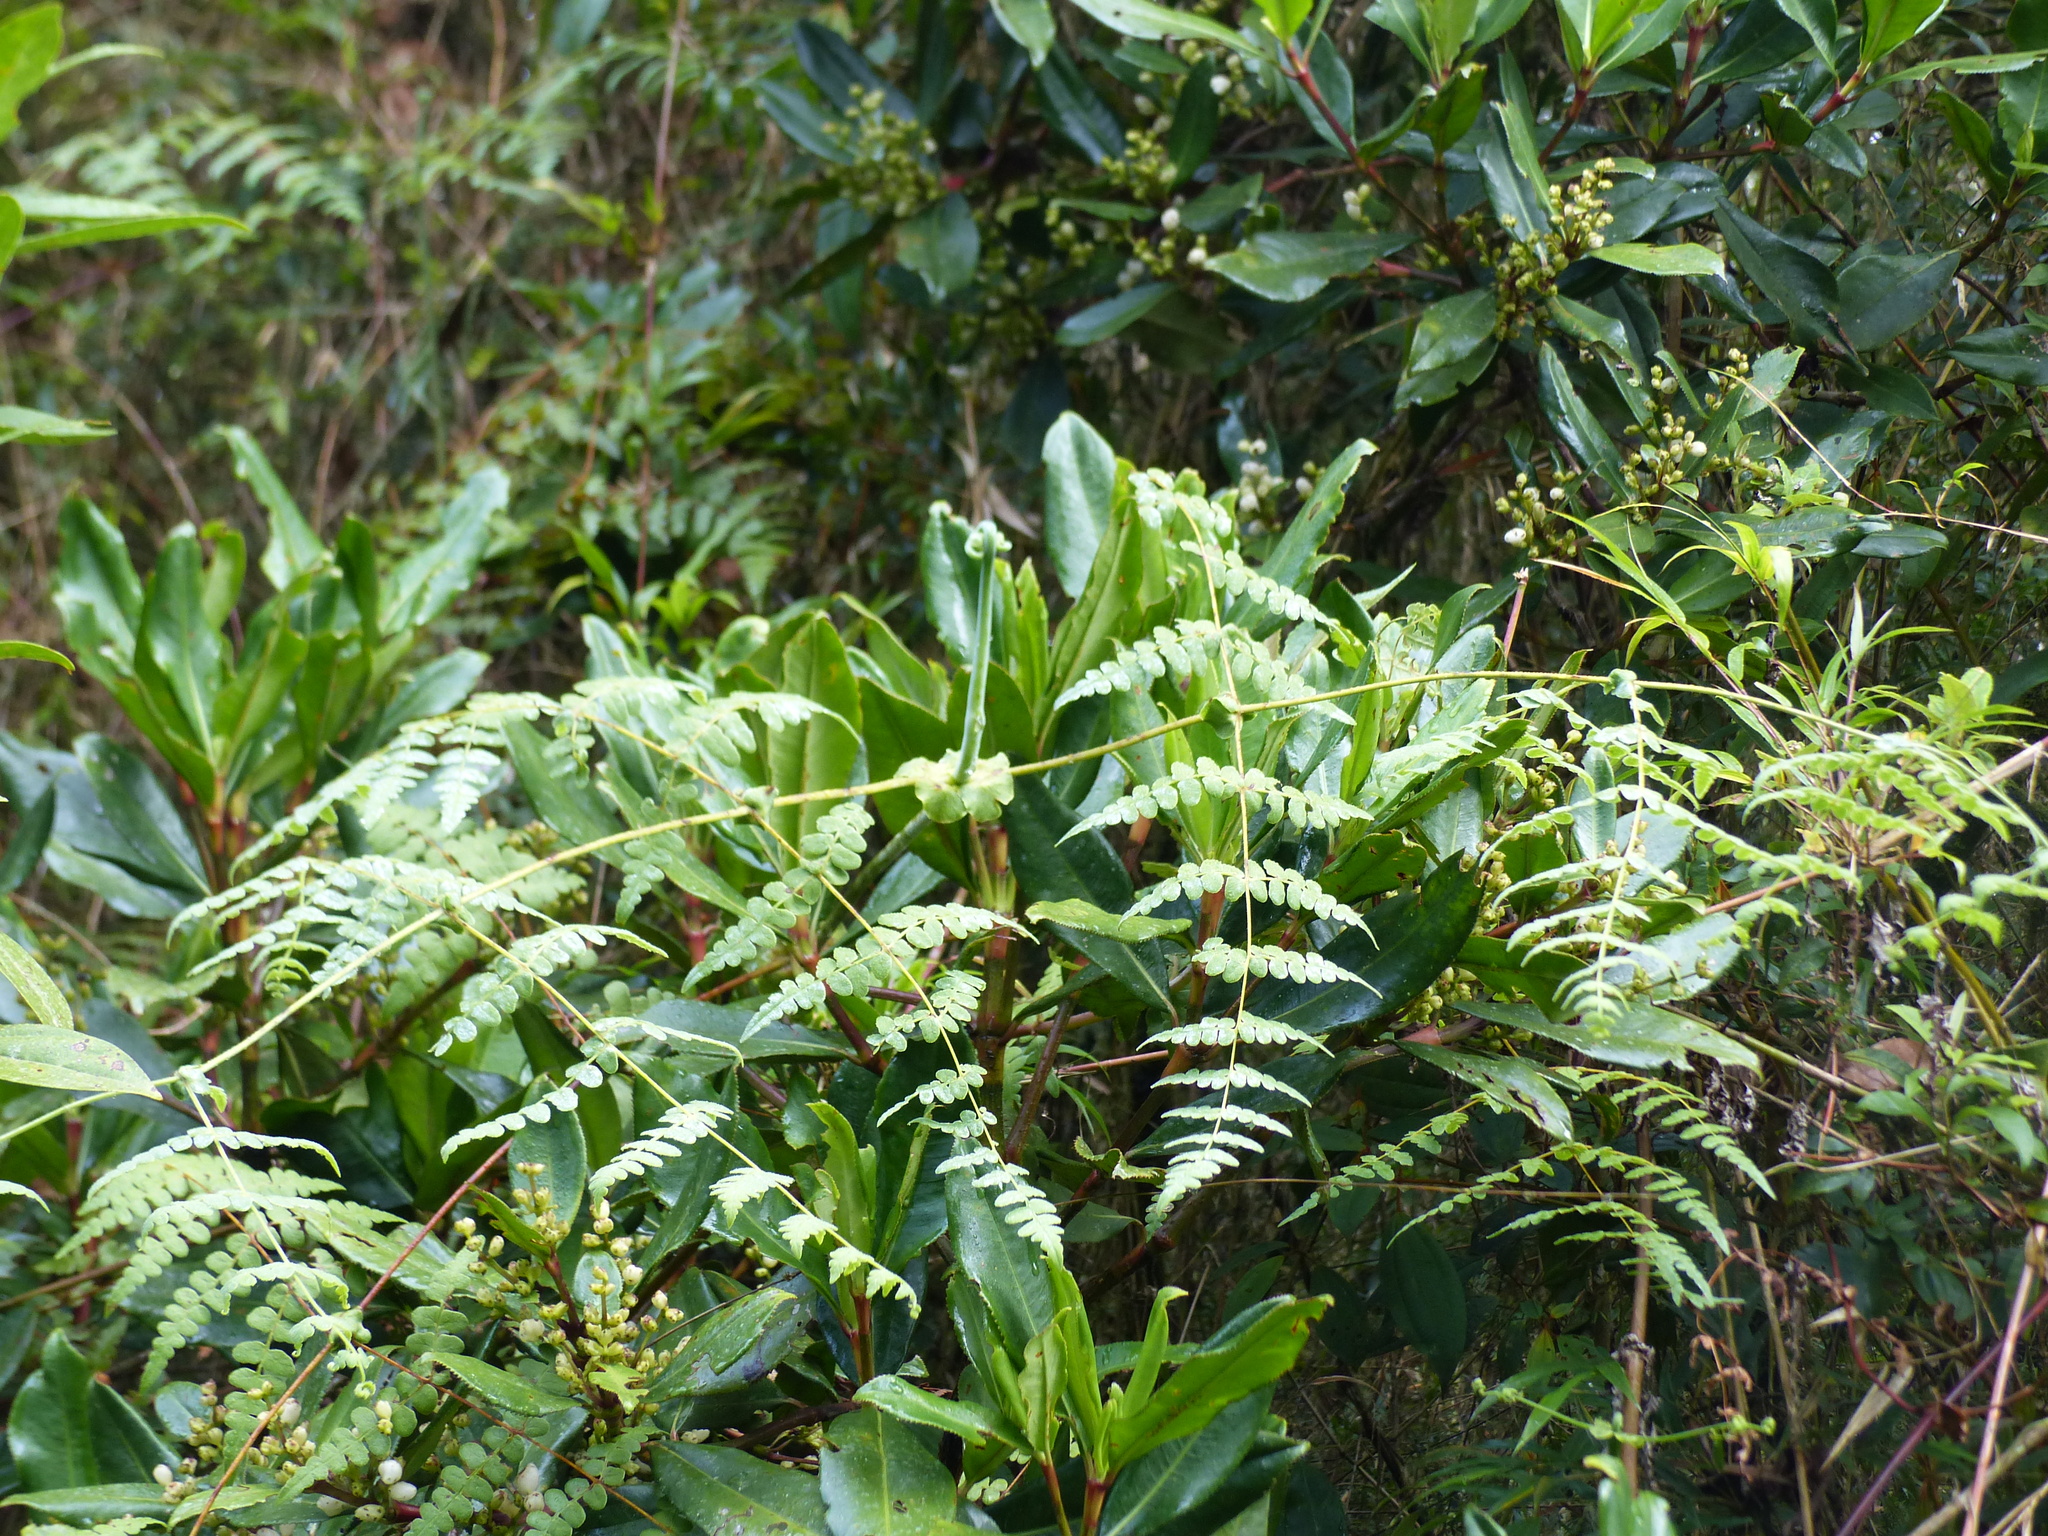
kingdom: Plantae
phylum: Tracheophyta
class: Polypodiopsida
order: Polypodiales
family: Dennstaedtiaceae
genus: Histiopteris
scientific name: Histiopteris incisa
